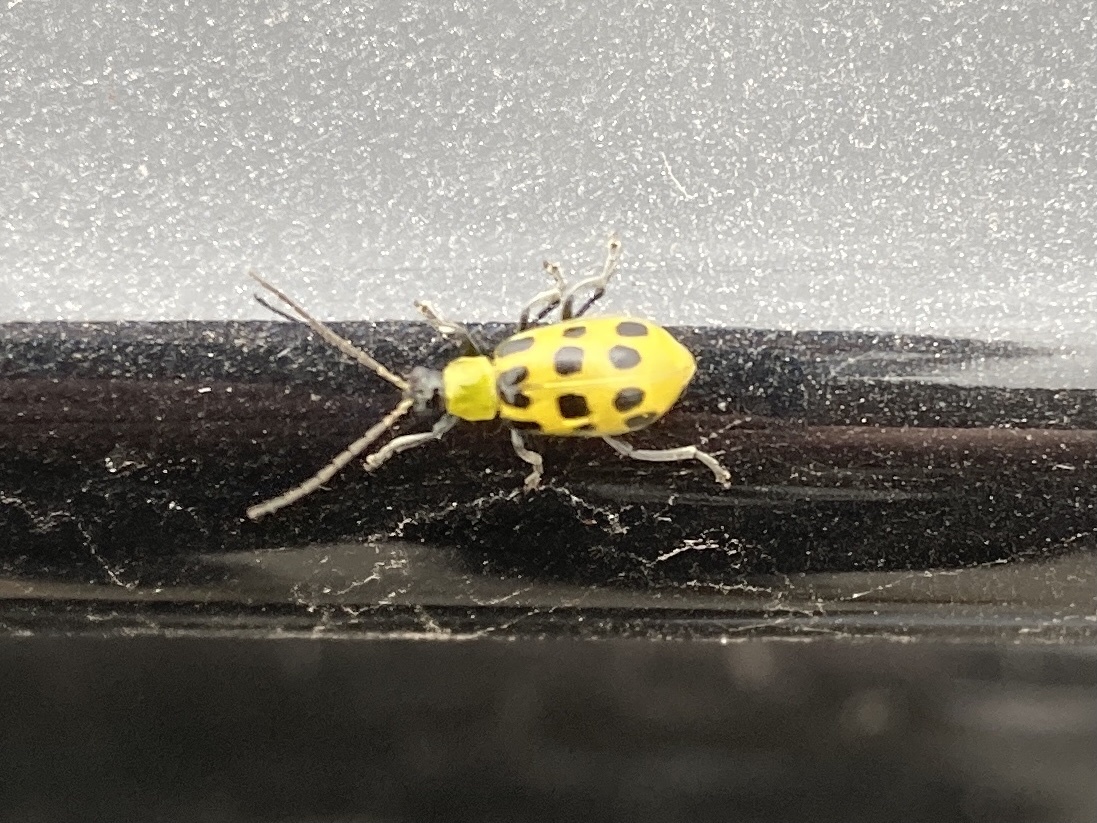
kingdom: Animalia
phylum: Arthropoda
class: Insecta
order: Coleoptera
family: Chrysomelidae
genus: Diabrotica
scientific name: Diabrotica undecimpunctata
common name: Spotted cucumber beetle
